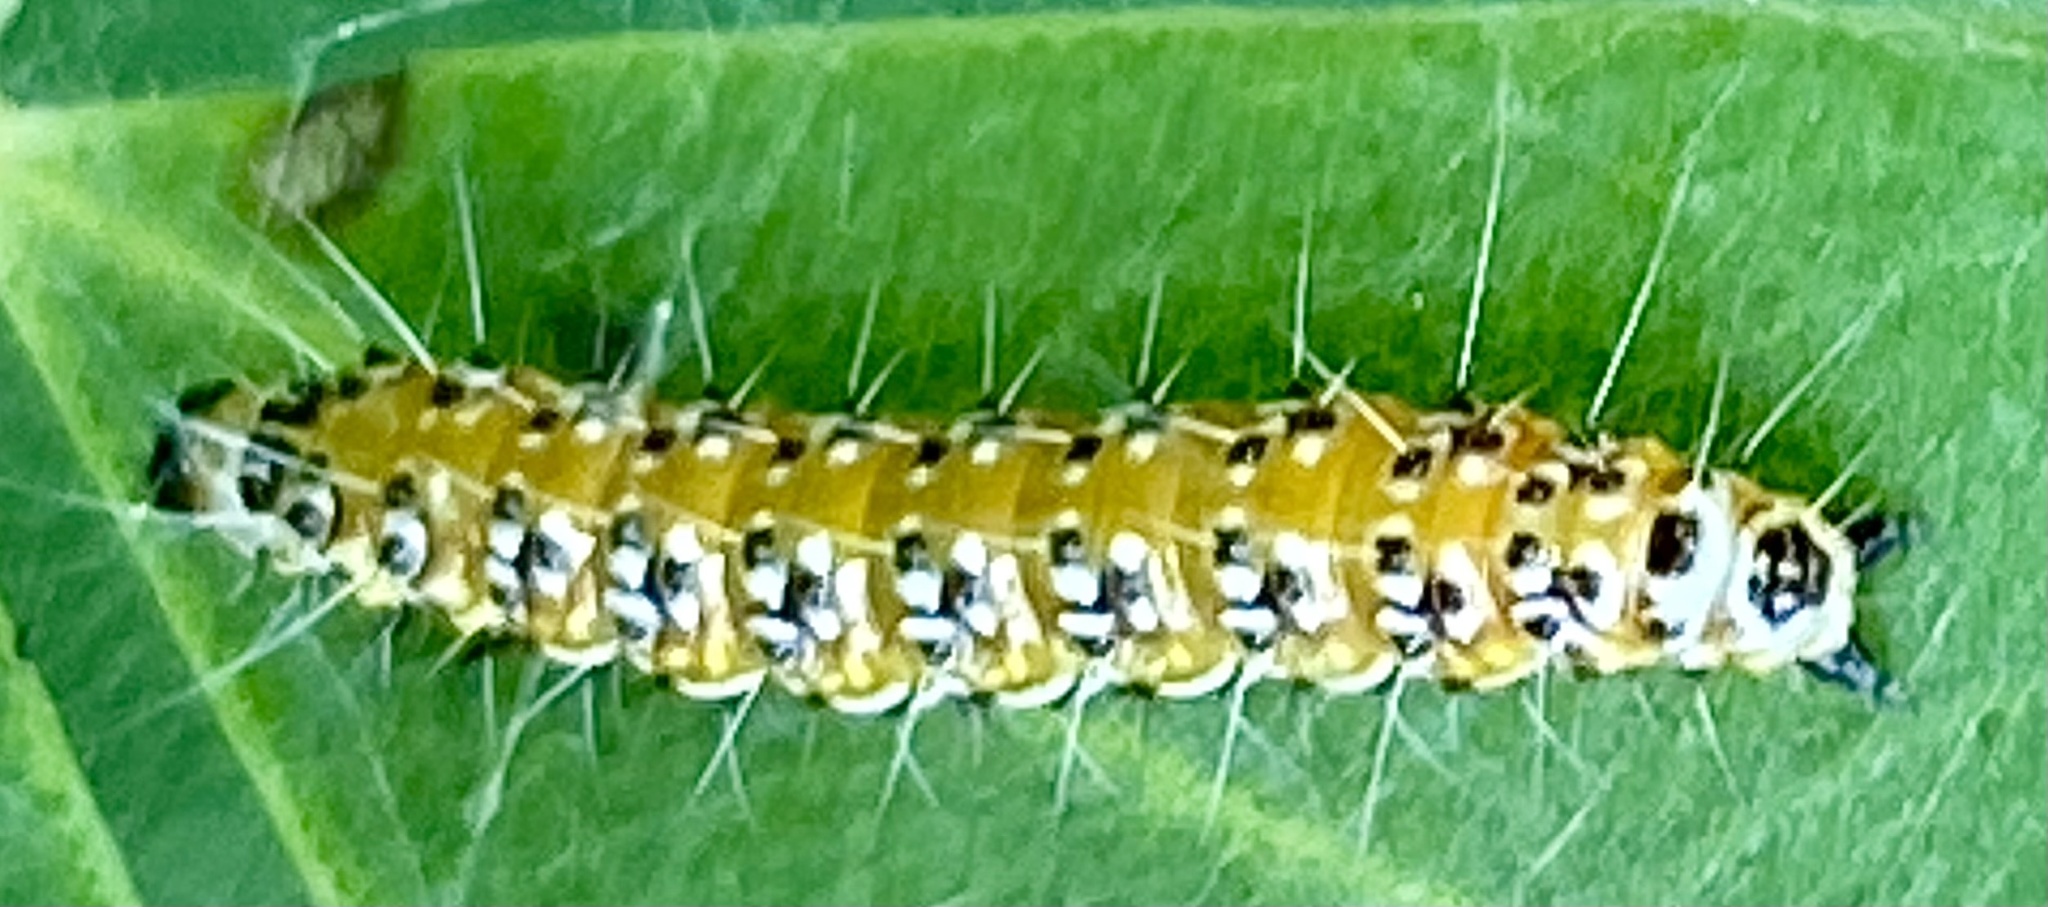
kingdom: Animalia
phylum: Arthropoda
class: Insecta
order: Lepidoptera
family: Crambidae
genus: Uresiphita
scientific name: Uresiphita reversalis
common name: Genista broom moth
